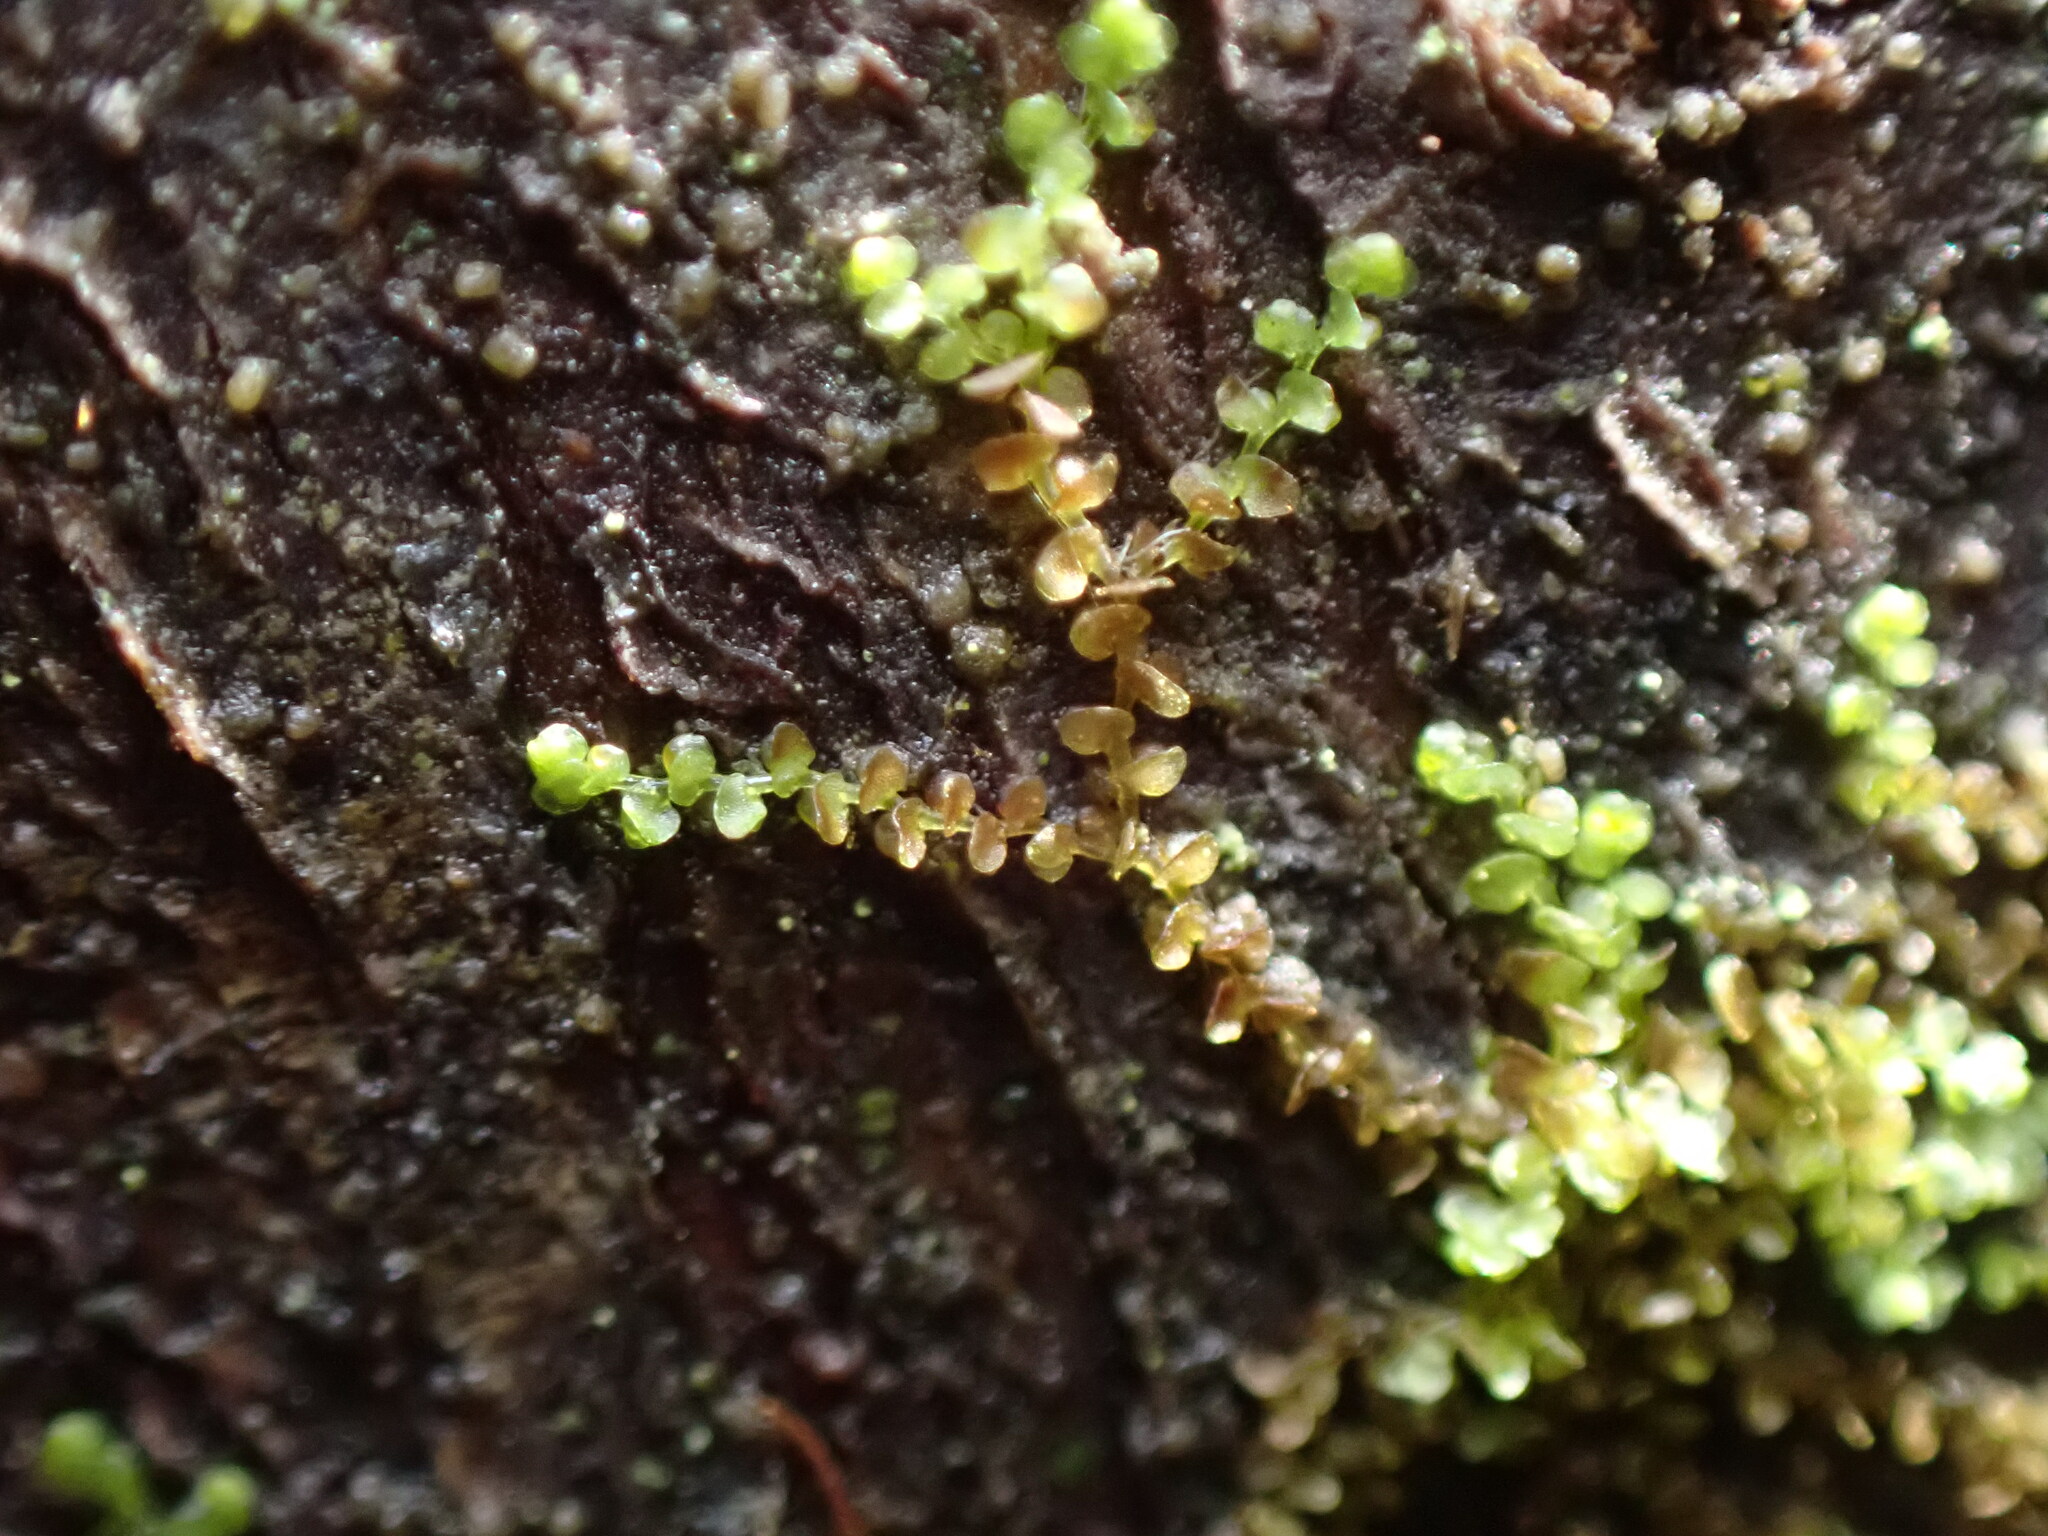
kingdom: Plantae
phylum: Marchantiophyta
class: Jungermanniopsida
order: Porellales
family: Frullaniaceae
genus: Frullania
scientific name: Frullania bolanderi
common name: Bolander s scalewort
